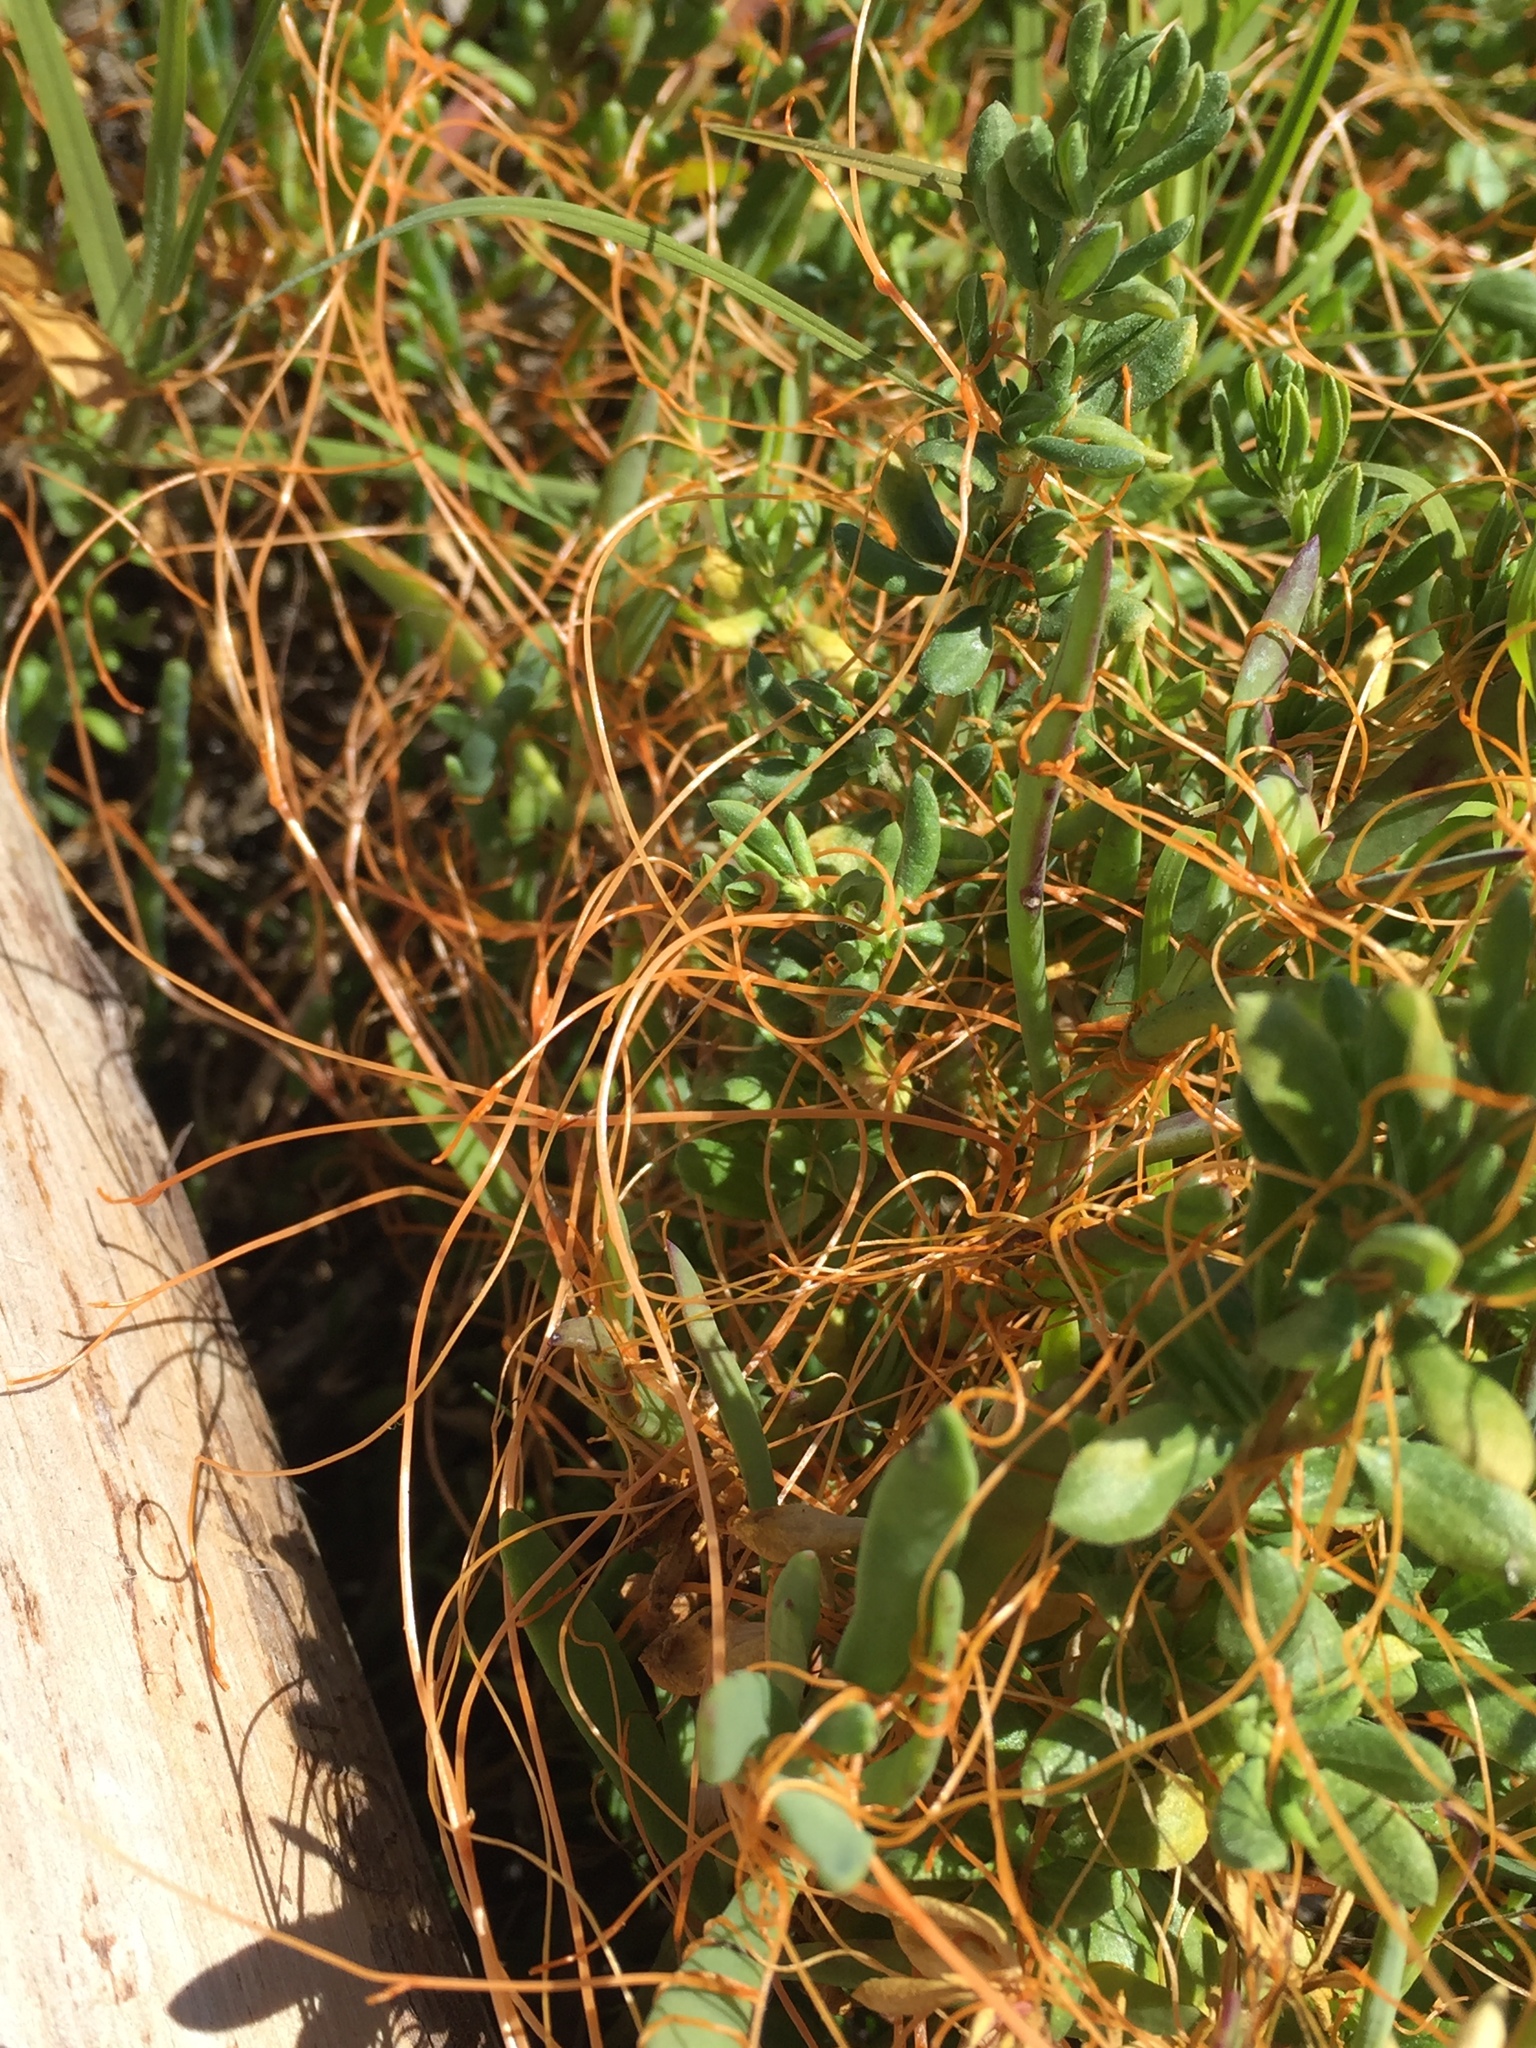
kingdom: Plantae
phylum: Tracheophyta
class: Magnoliopsida
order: Solanales
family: Convolvulaceae
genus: Cuscuta
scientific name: Cuscuta pacifica
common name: Large saltmarsh dodder
